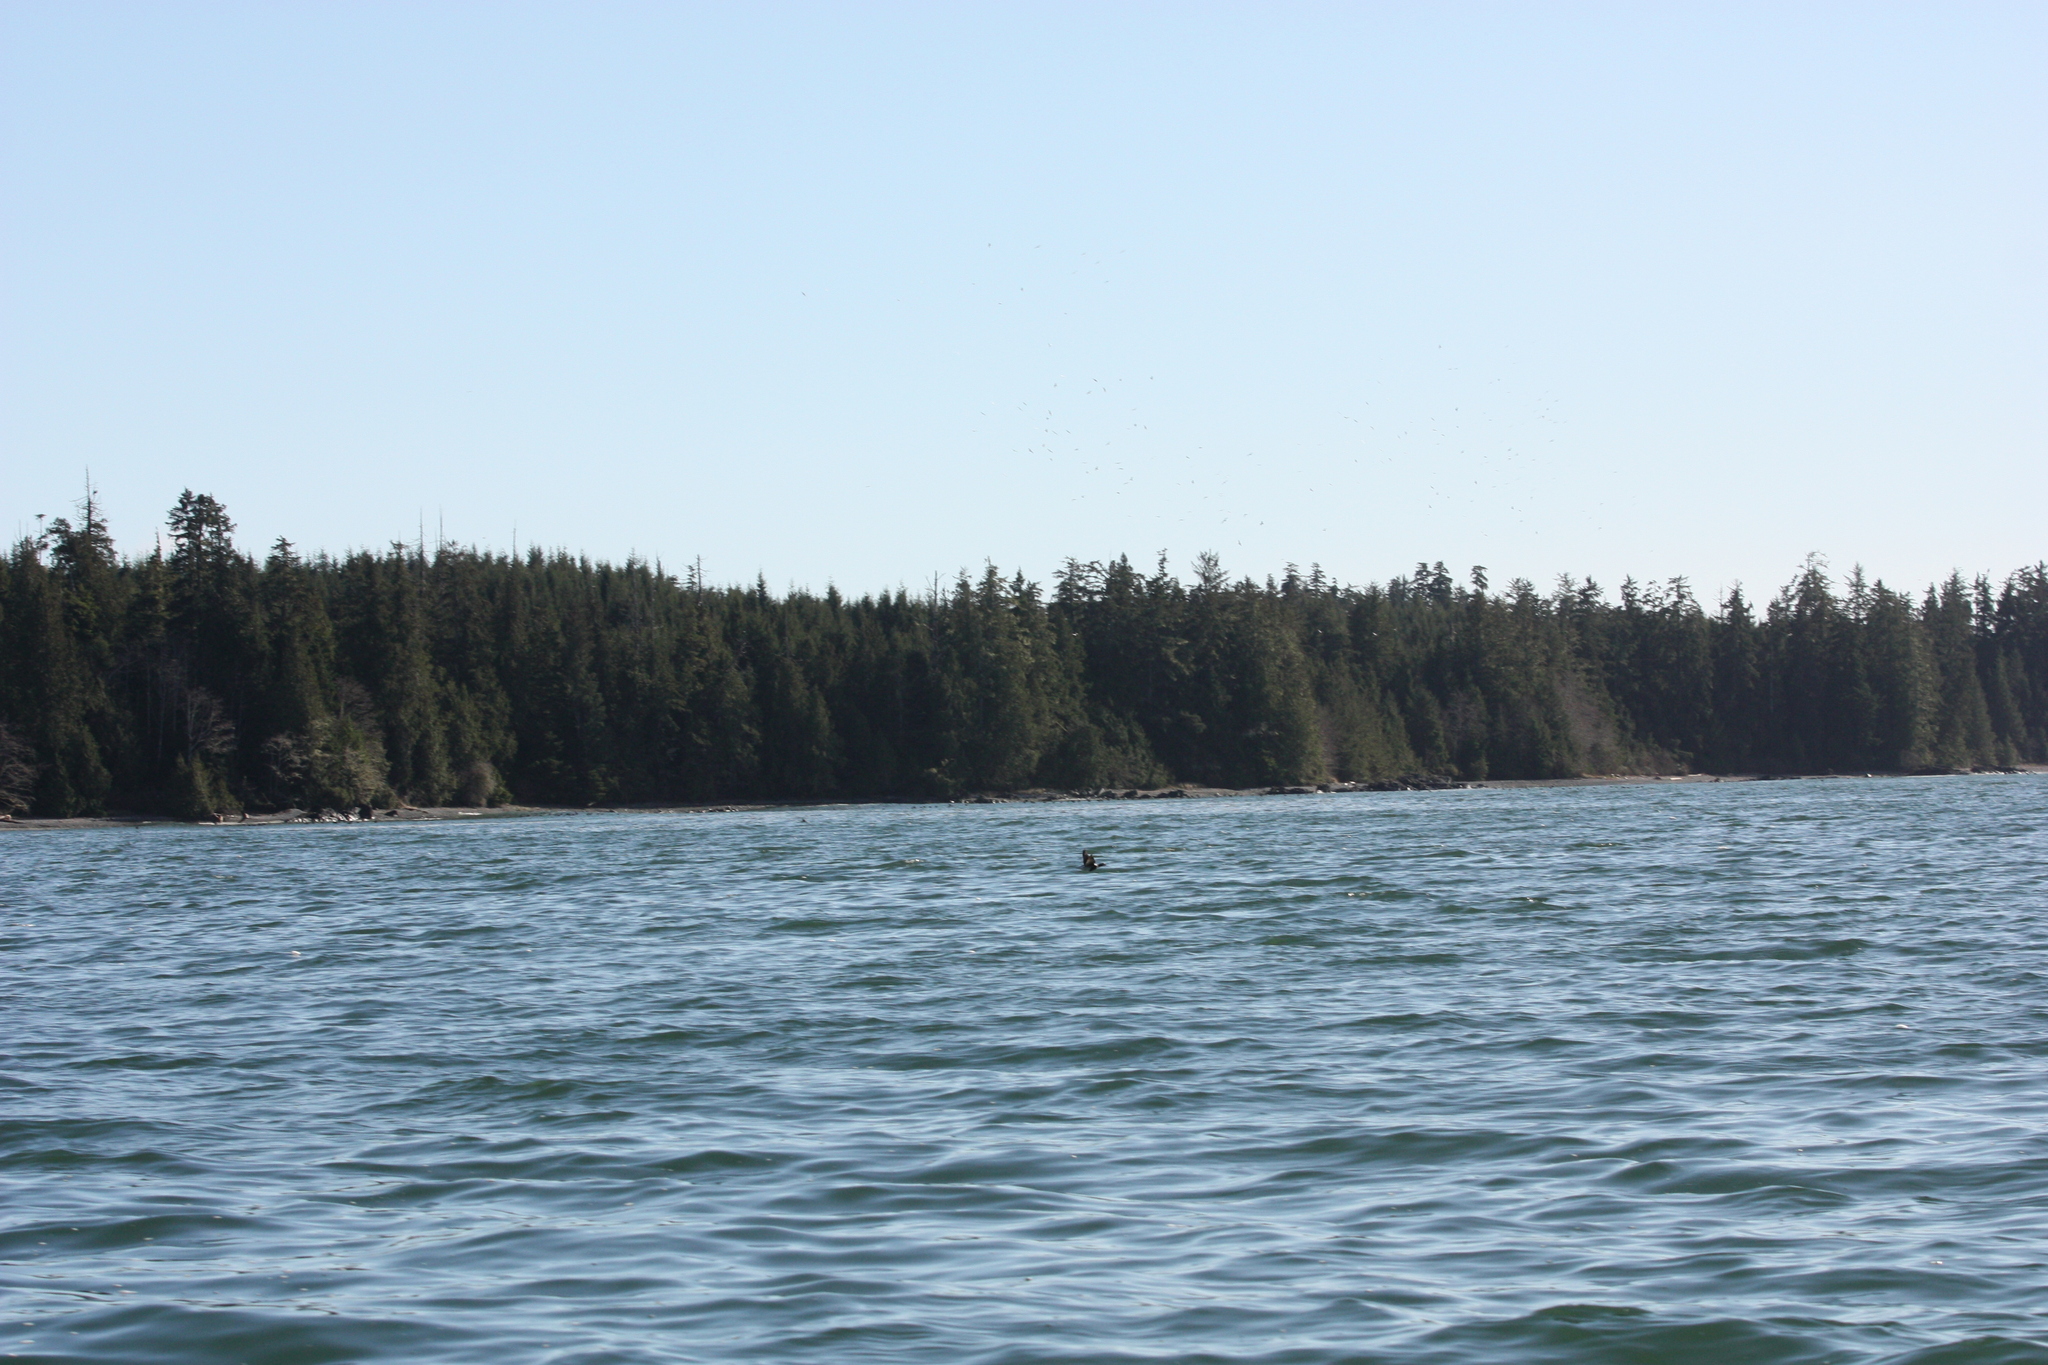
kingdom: Animalia
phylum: Chordata
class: Aves
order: Anseriformes
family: Anatidae
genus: Clangula
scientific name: Clangula hyemalis
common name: Long-tailed duck
